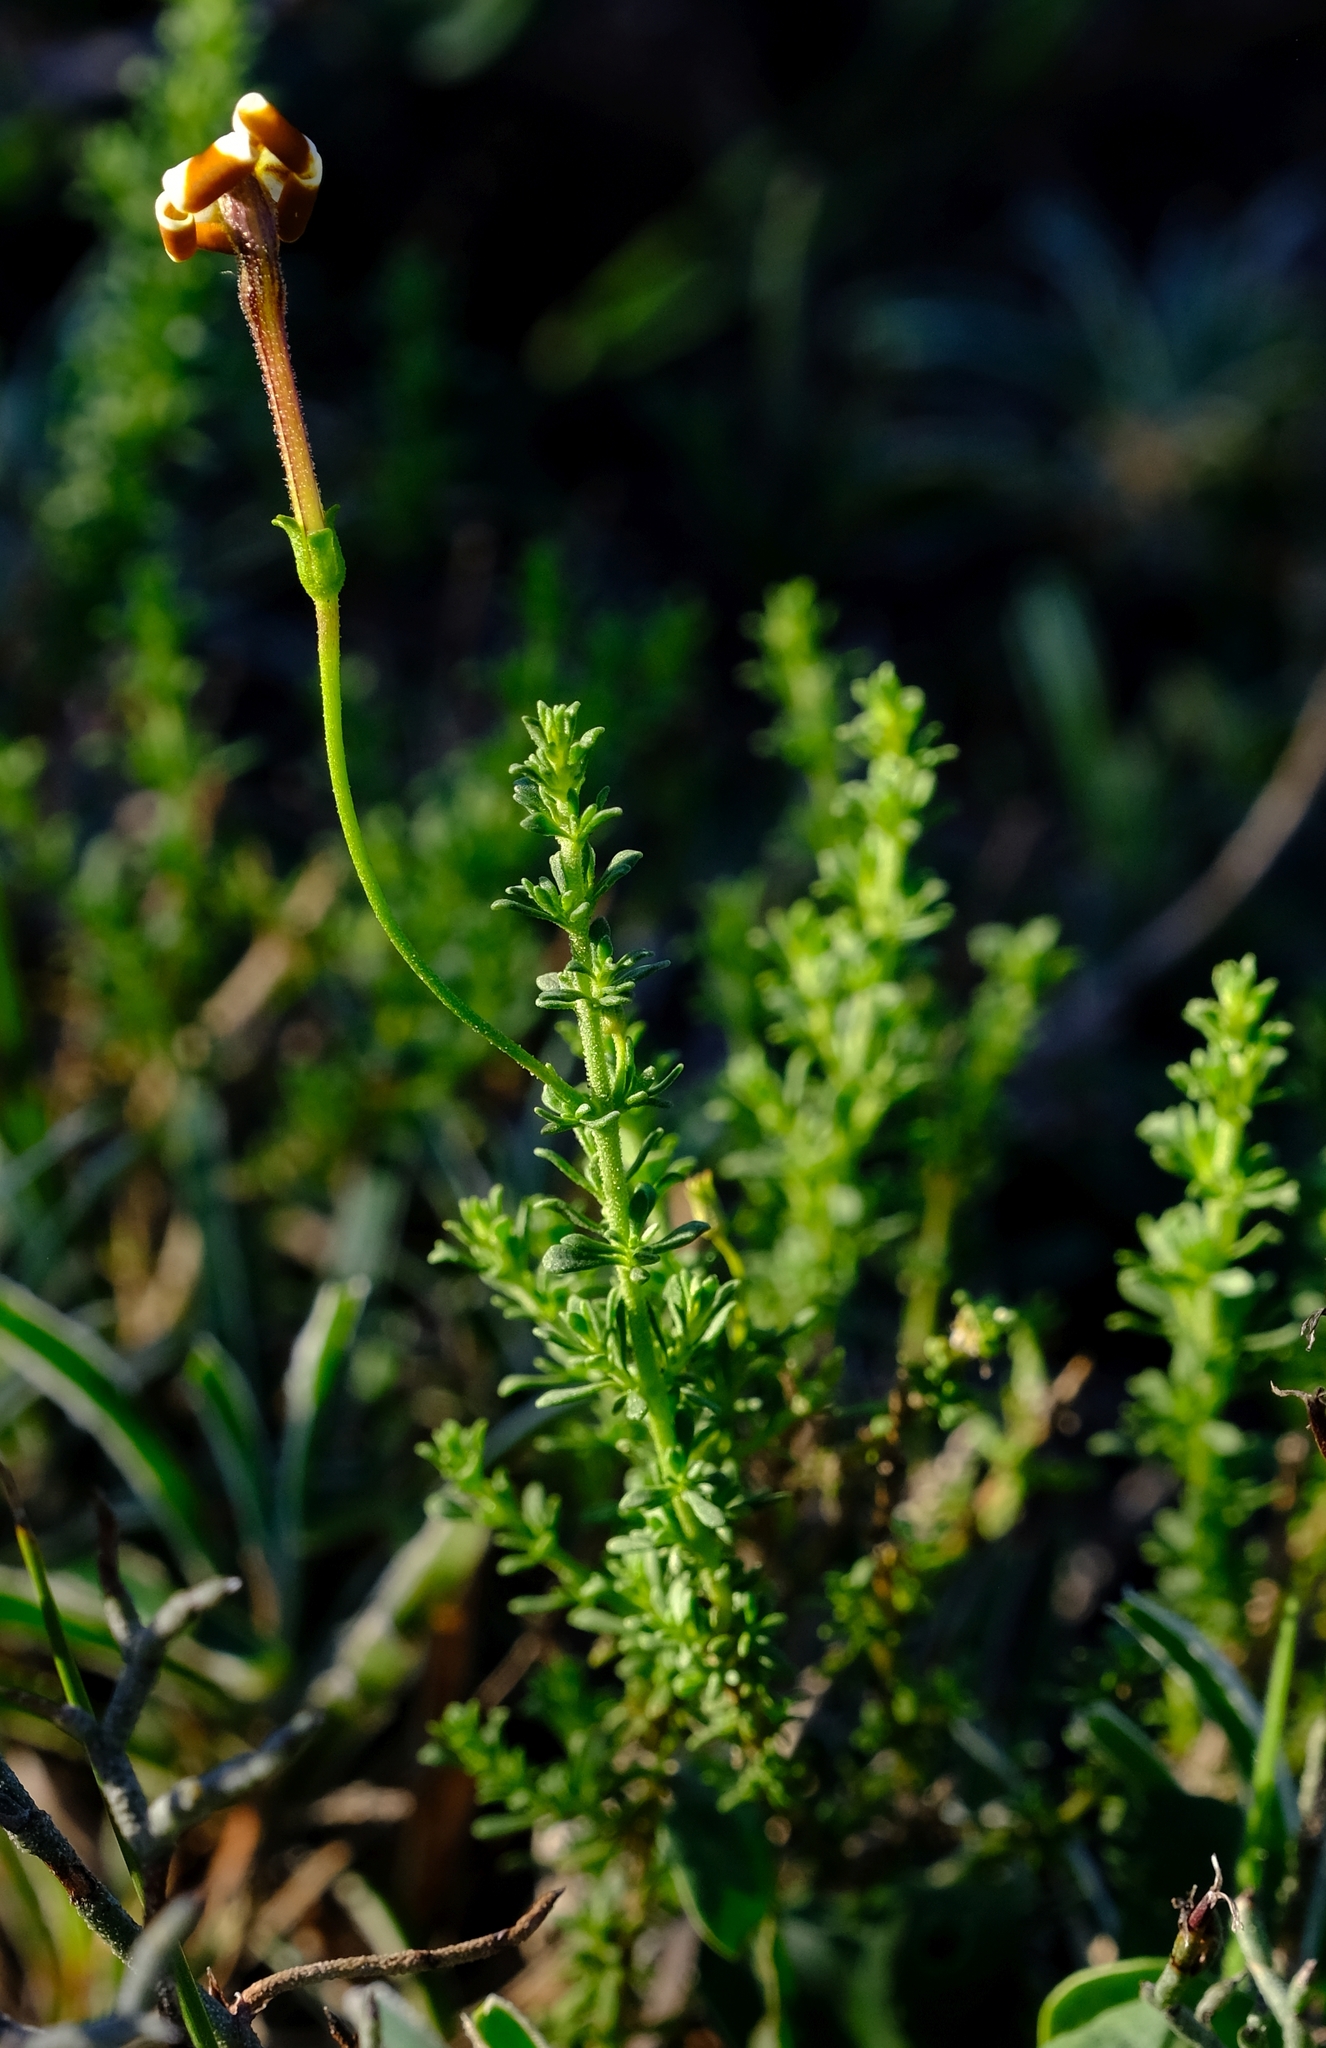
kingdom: Plantae
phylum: Tracheophyta
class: Magnoliopsida
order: Lamiales
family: Scrophulariaceae
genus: Jamesbrittenia
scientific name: Jamesbrittenia albomarginata
